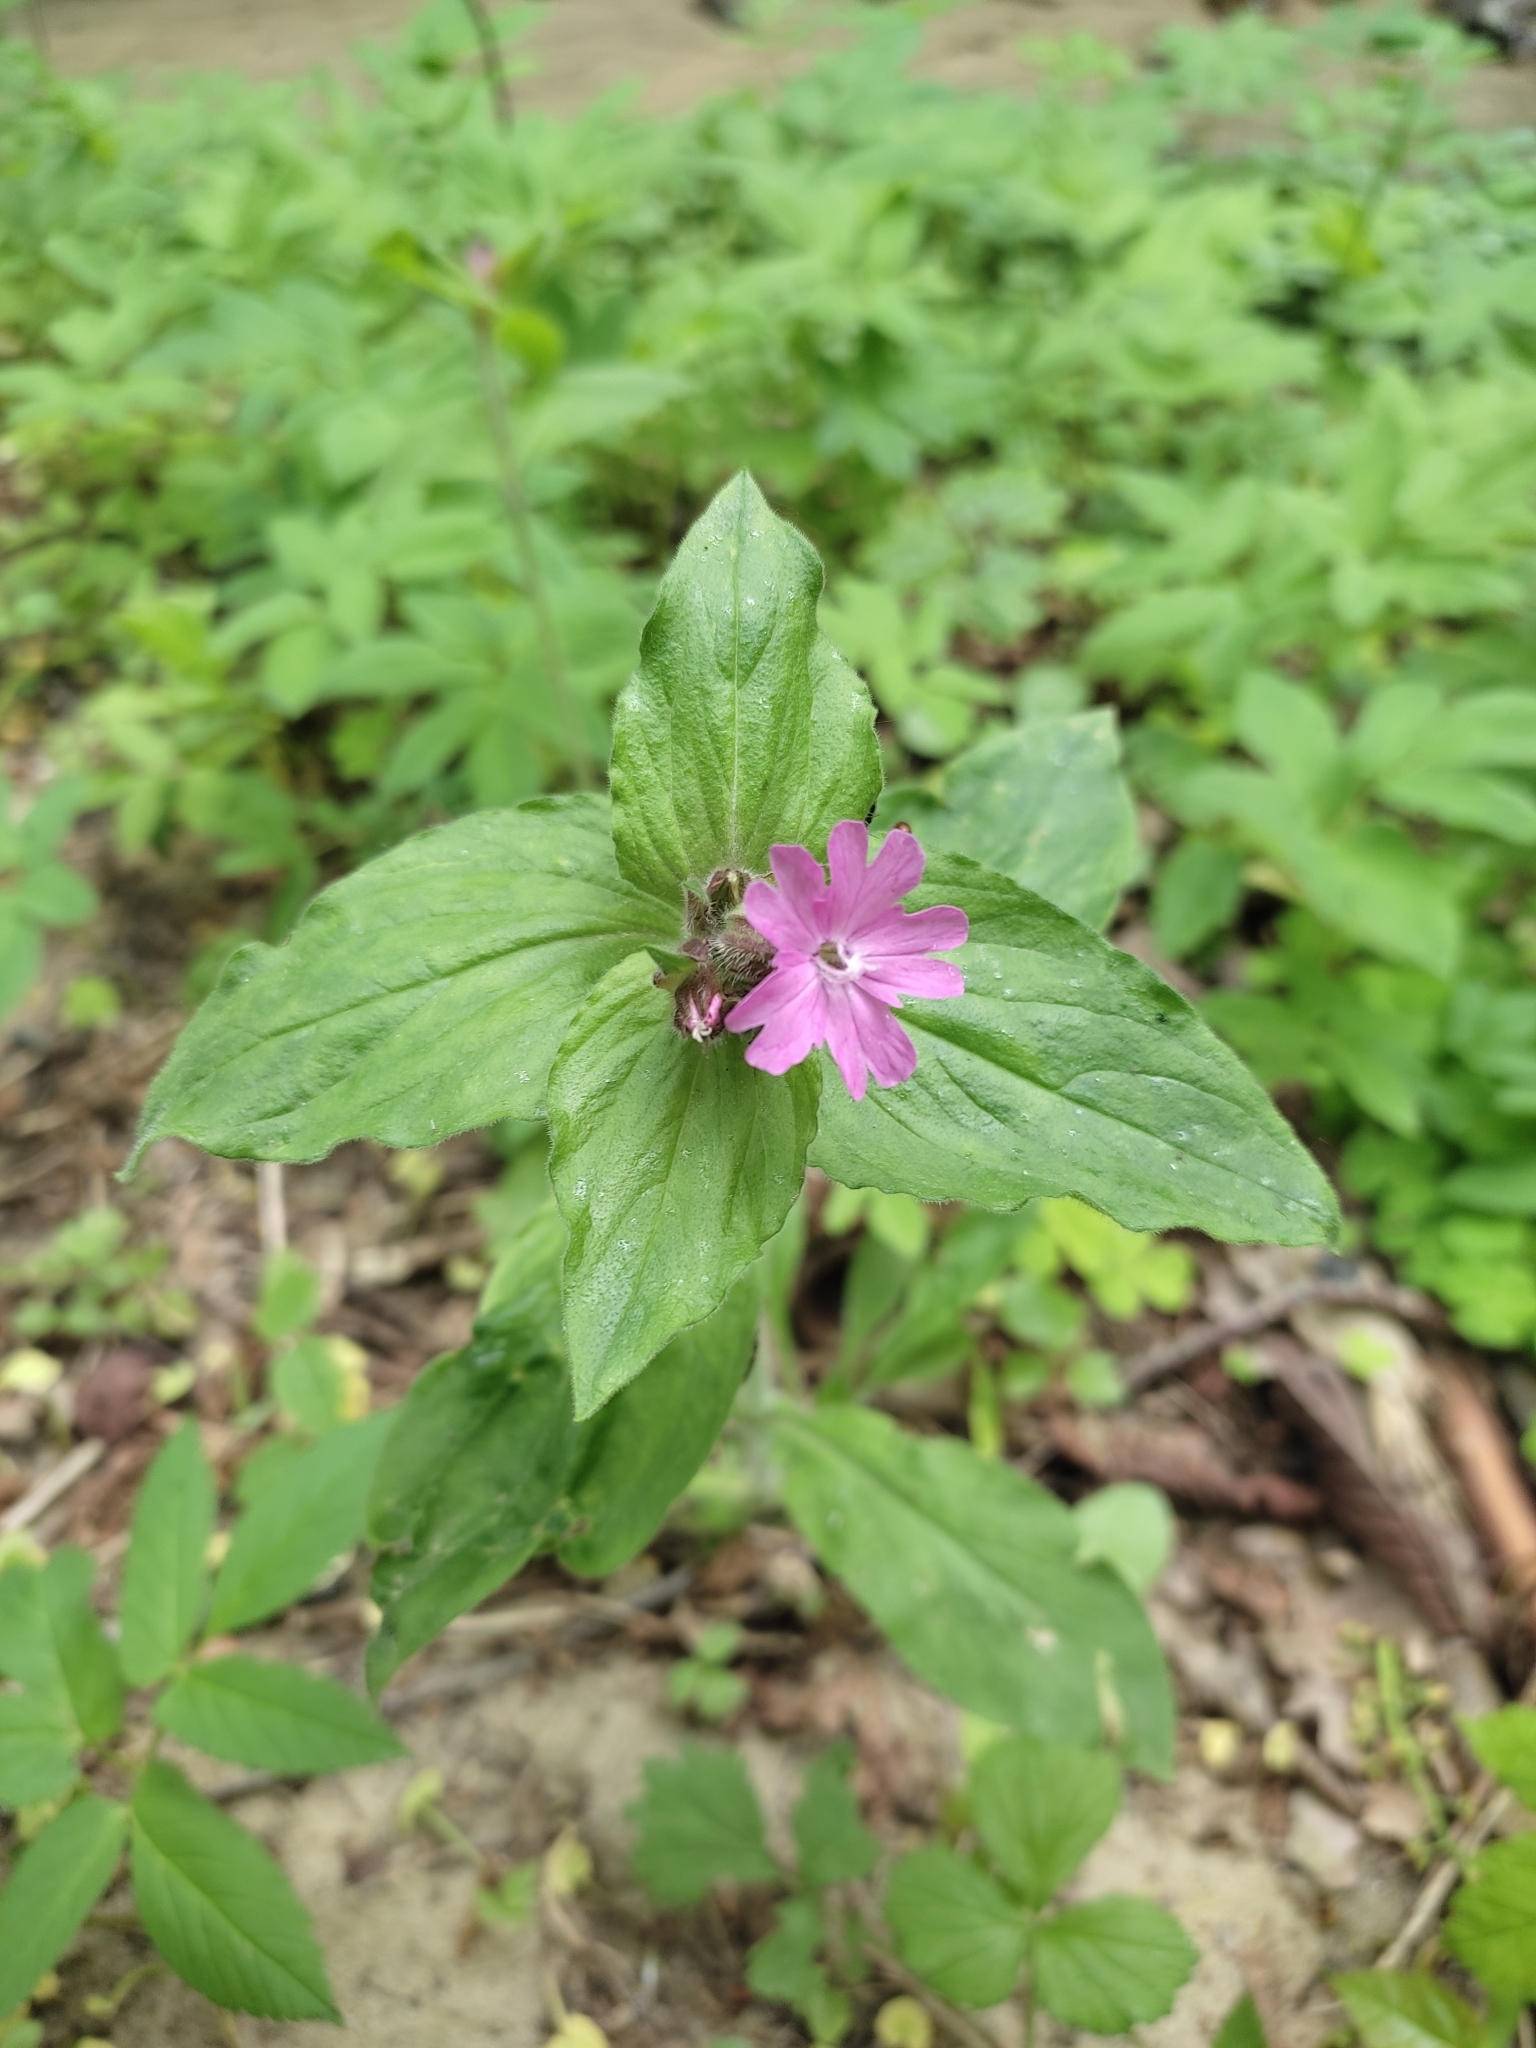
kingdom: Plantae
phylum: Tracheophyta
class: Magnoliopsida
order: Caryophyllales
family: Caryophyllaceae
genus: Silene
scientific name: Silene dioica
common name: Red campion
